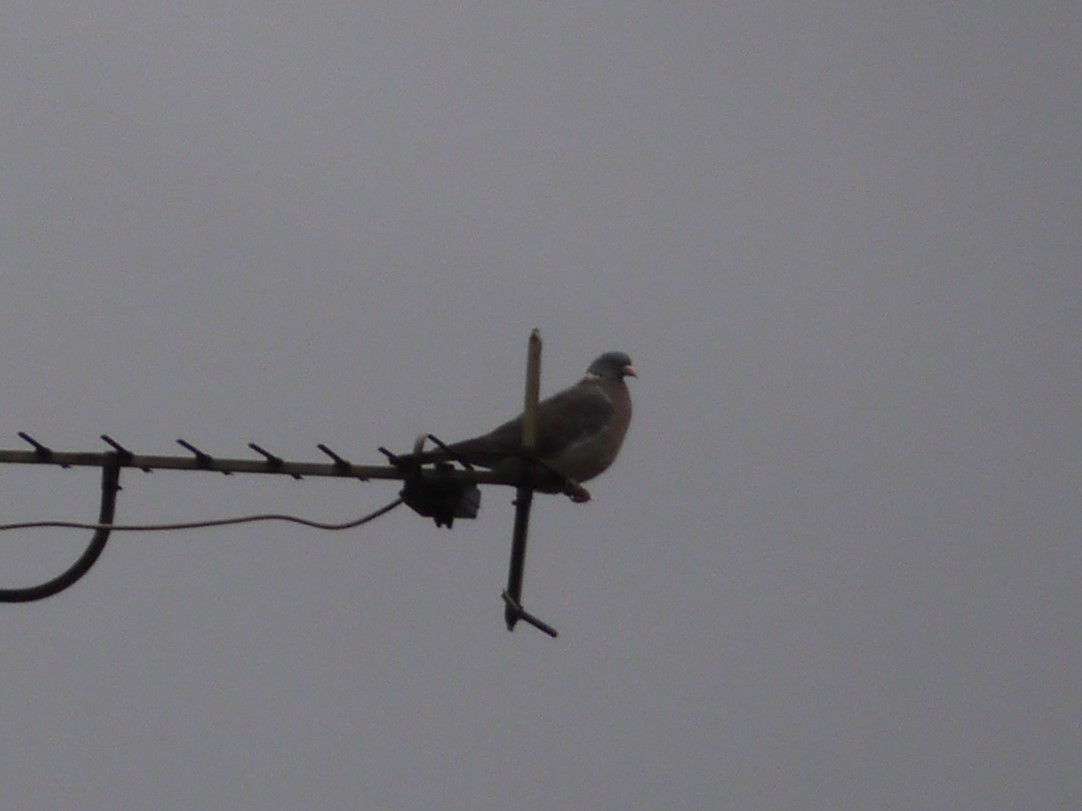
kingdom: Animalia
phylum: Chordata
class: Aves
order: Columbiformes
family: Columbidae
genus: Columba
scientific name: Columba palumbus
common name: Common wood pigeon
